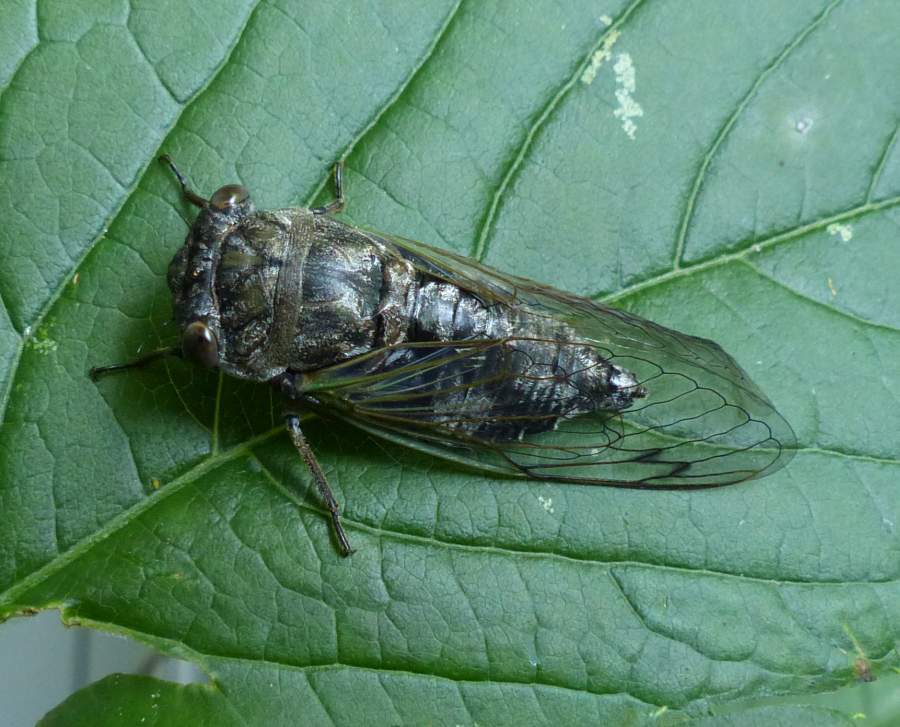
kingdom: Animalia
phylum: Arthropoda
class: Insecta
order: Hemiptera
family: Cicadidae
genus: Neotibicen
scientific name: Neotibicen canicularis
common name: God-day cicada
